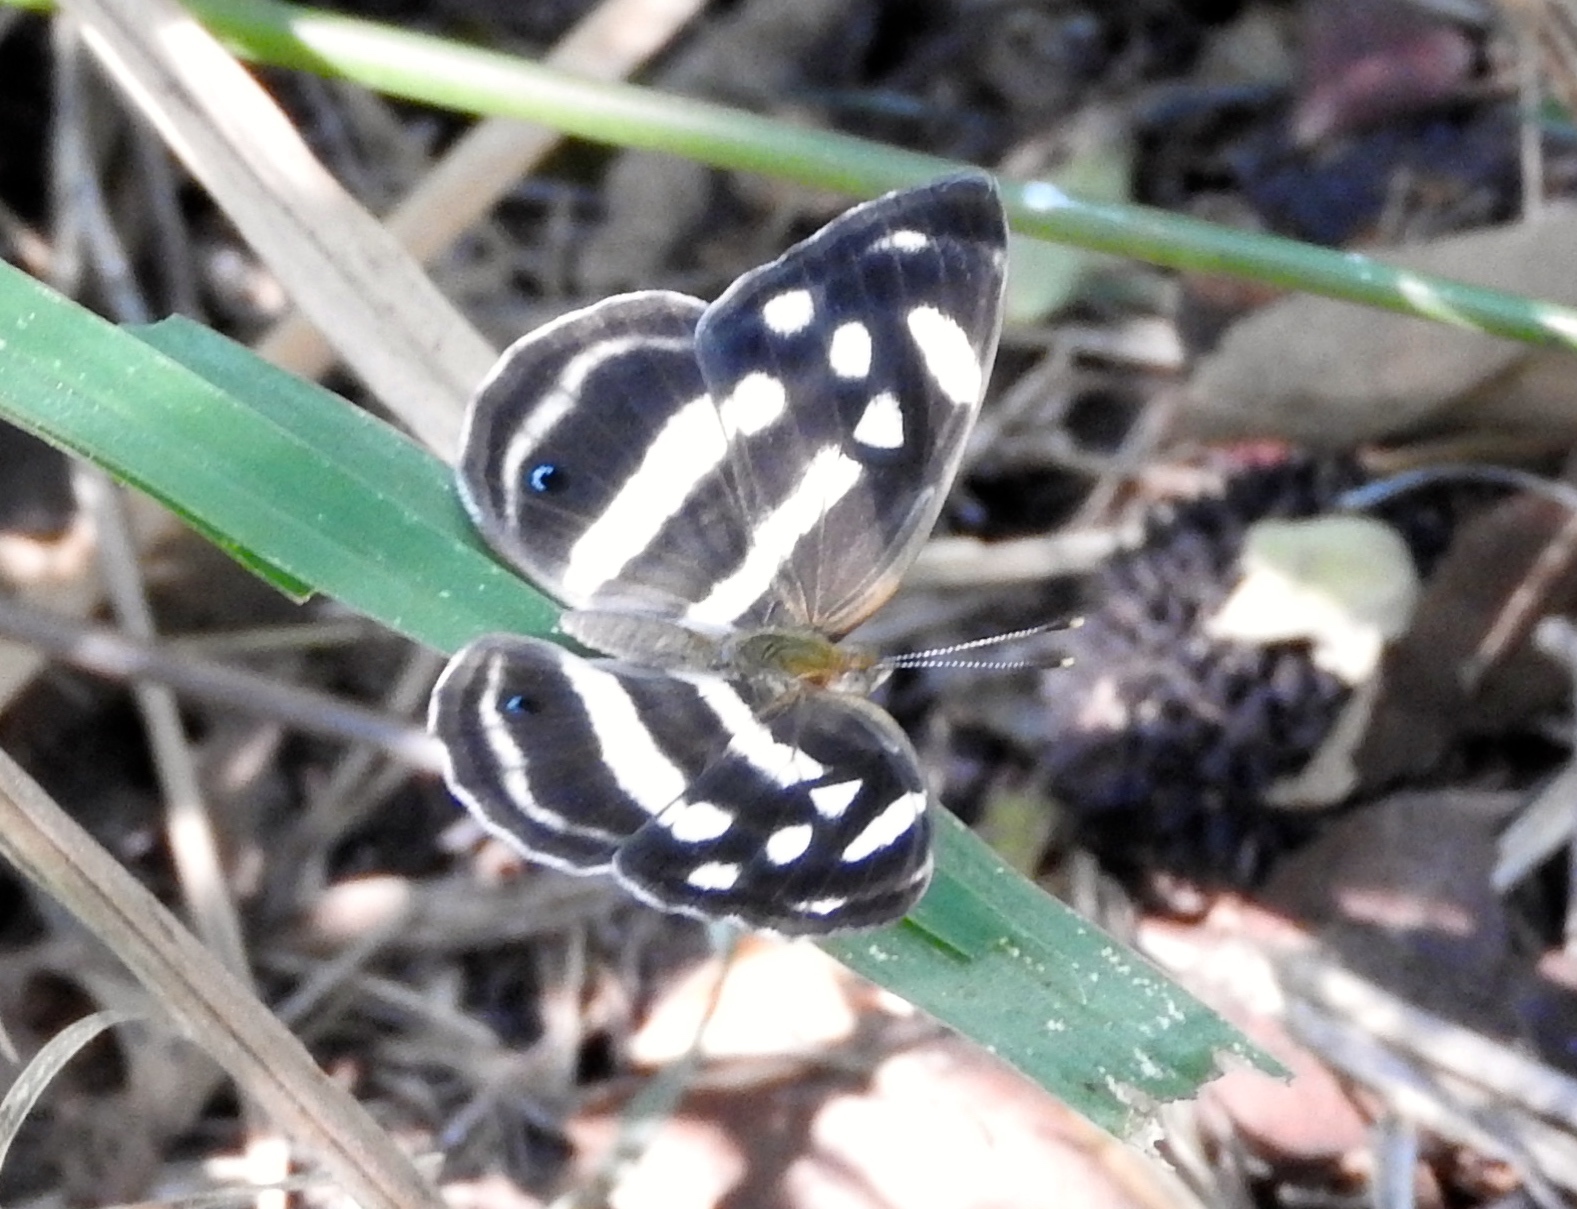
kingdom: Animalia
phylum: Arthropoda
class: Insecta
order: Lepidoptera
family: Nymphalidae
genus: Dynamine
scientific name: Dynamine mylitta
